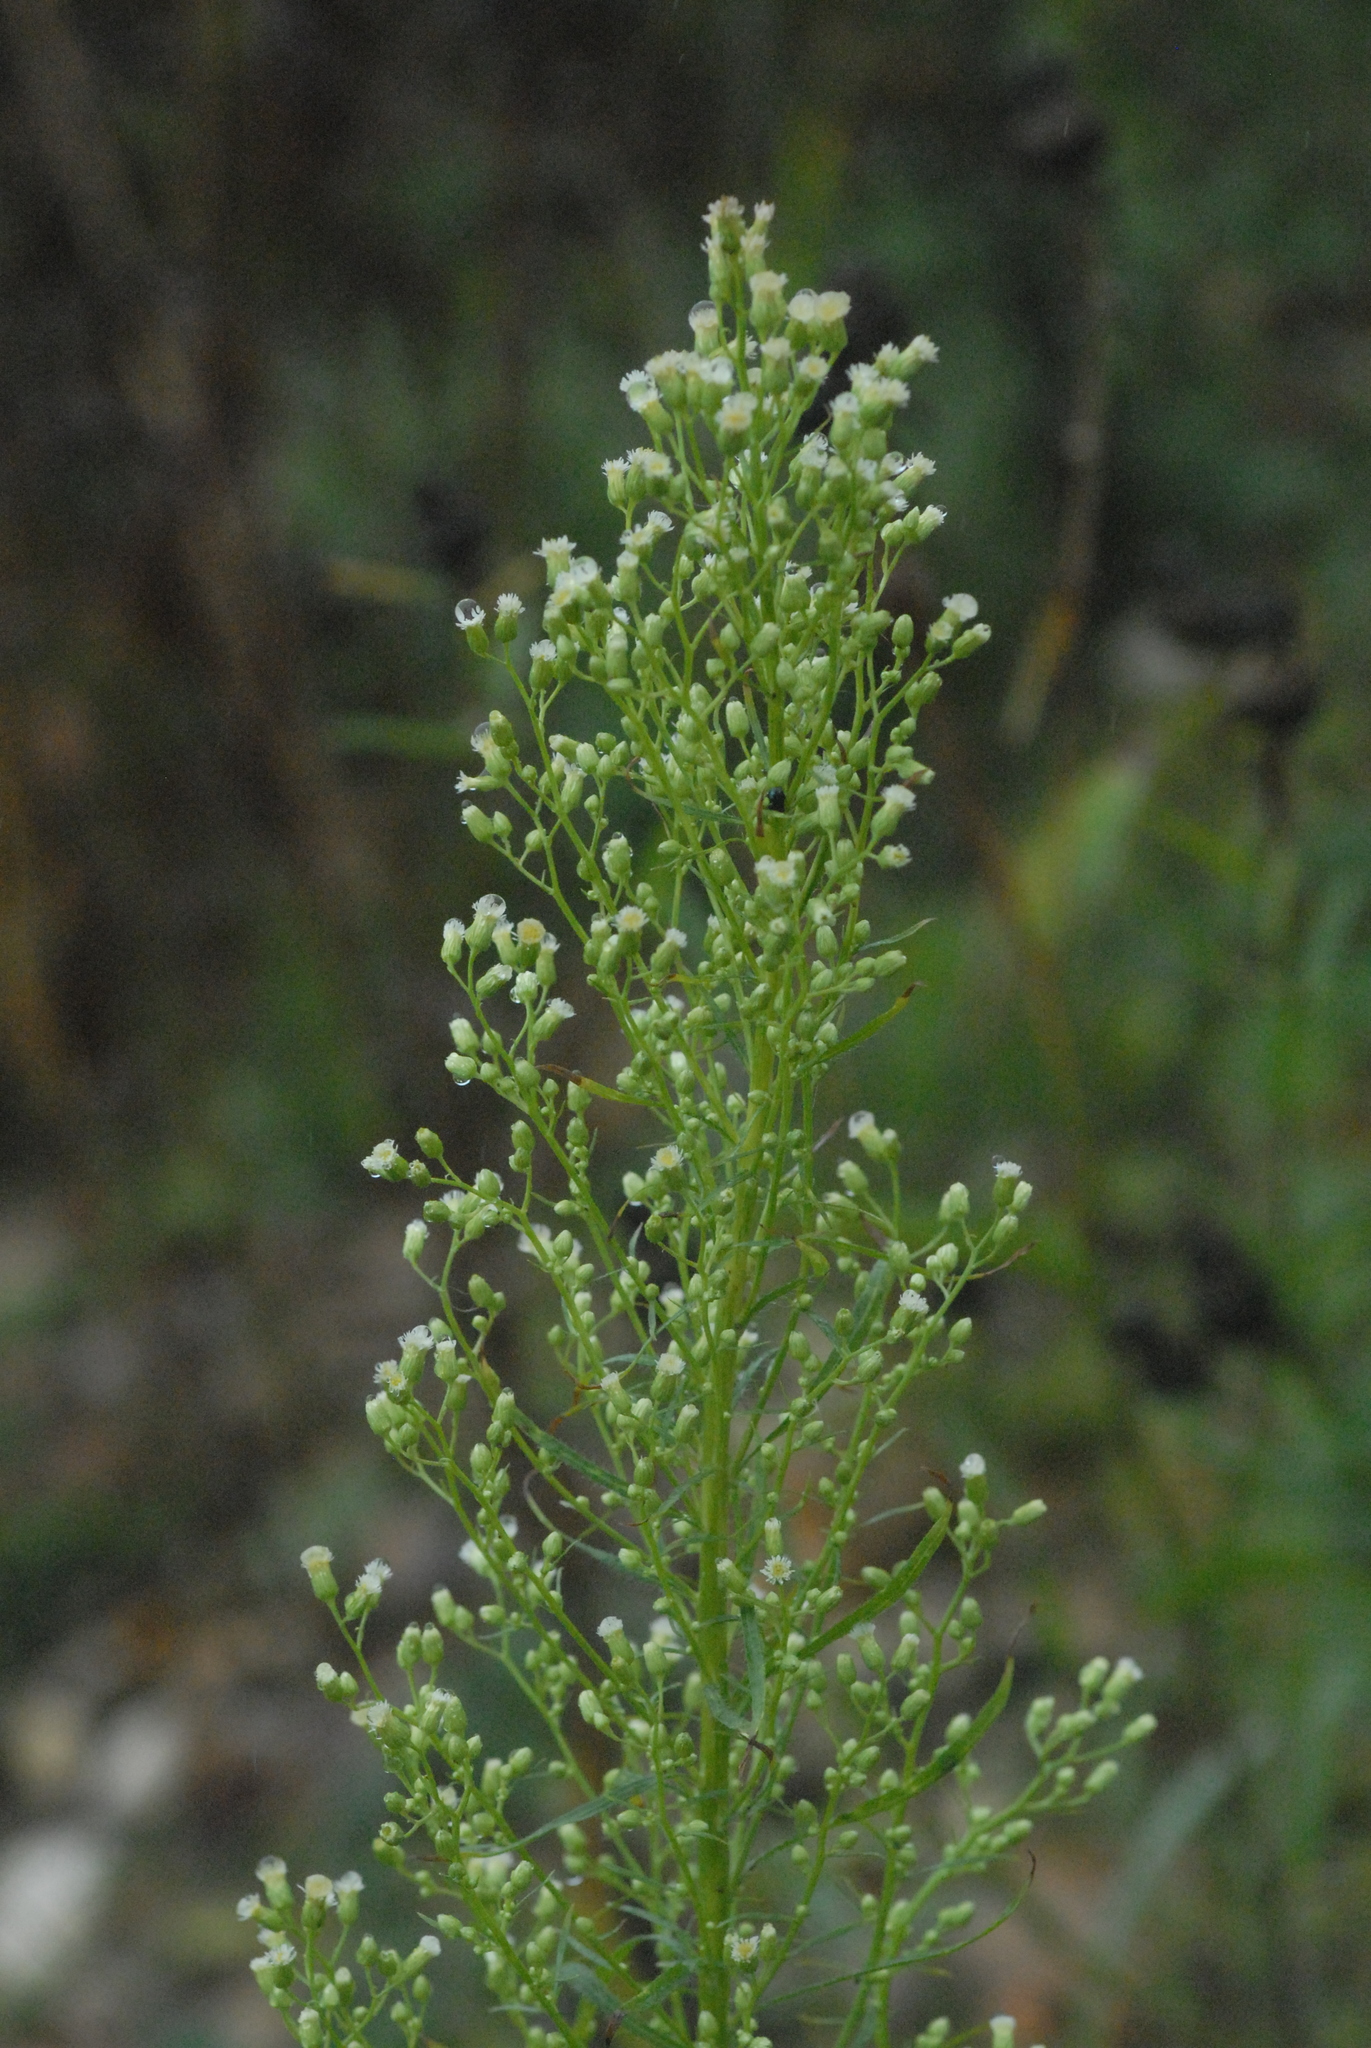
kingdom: Plantae
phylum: Tracheophyta
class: Magnoliopsida
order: Asterales
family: Asteraceae
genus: Erigeron
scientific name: Erigeron canadensis
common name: Canadian fleabane
